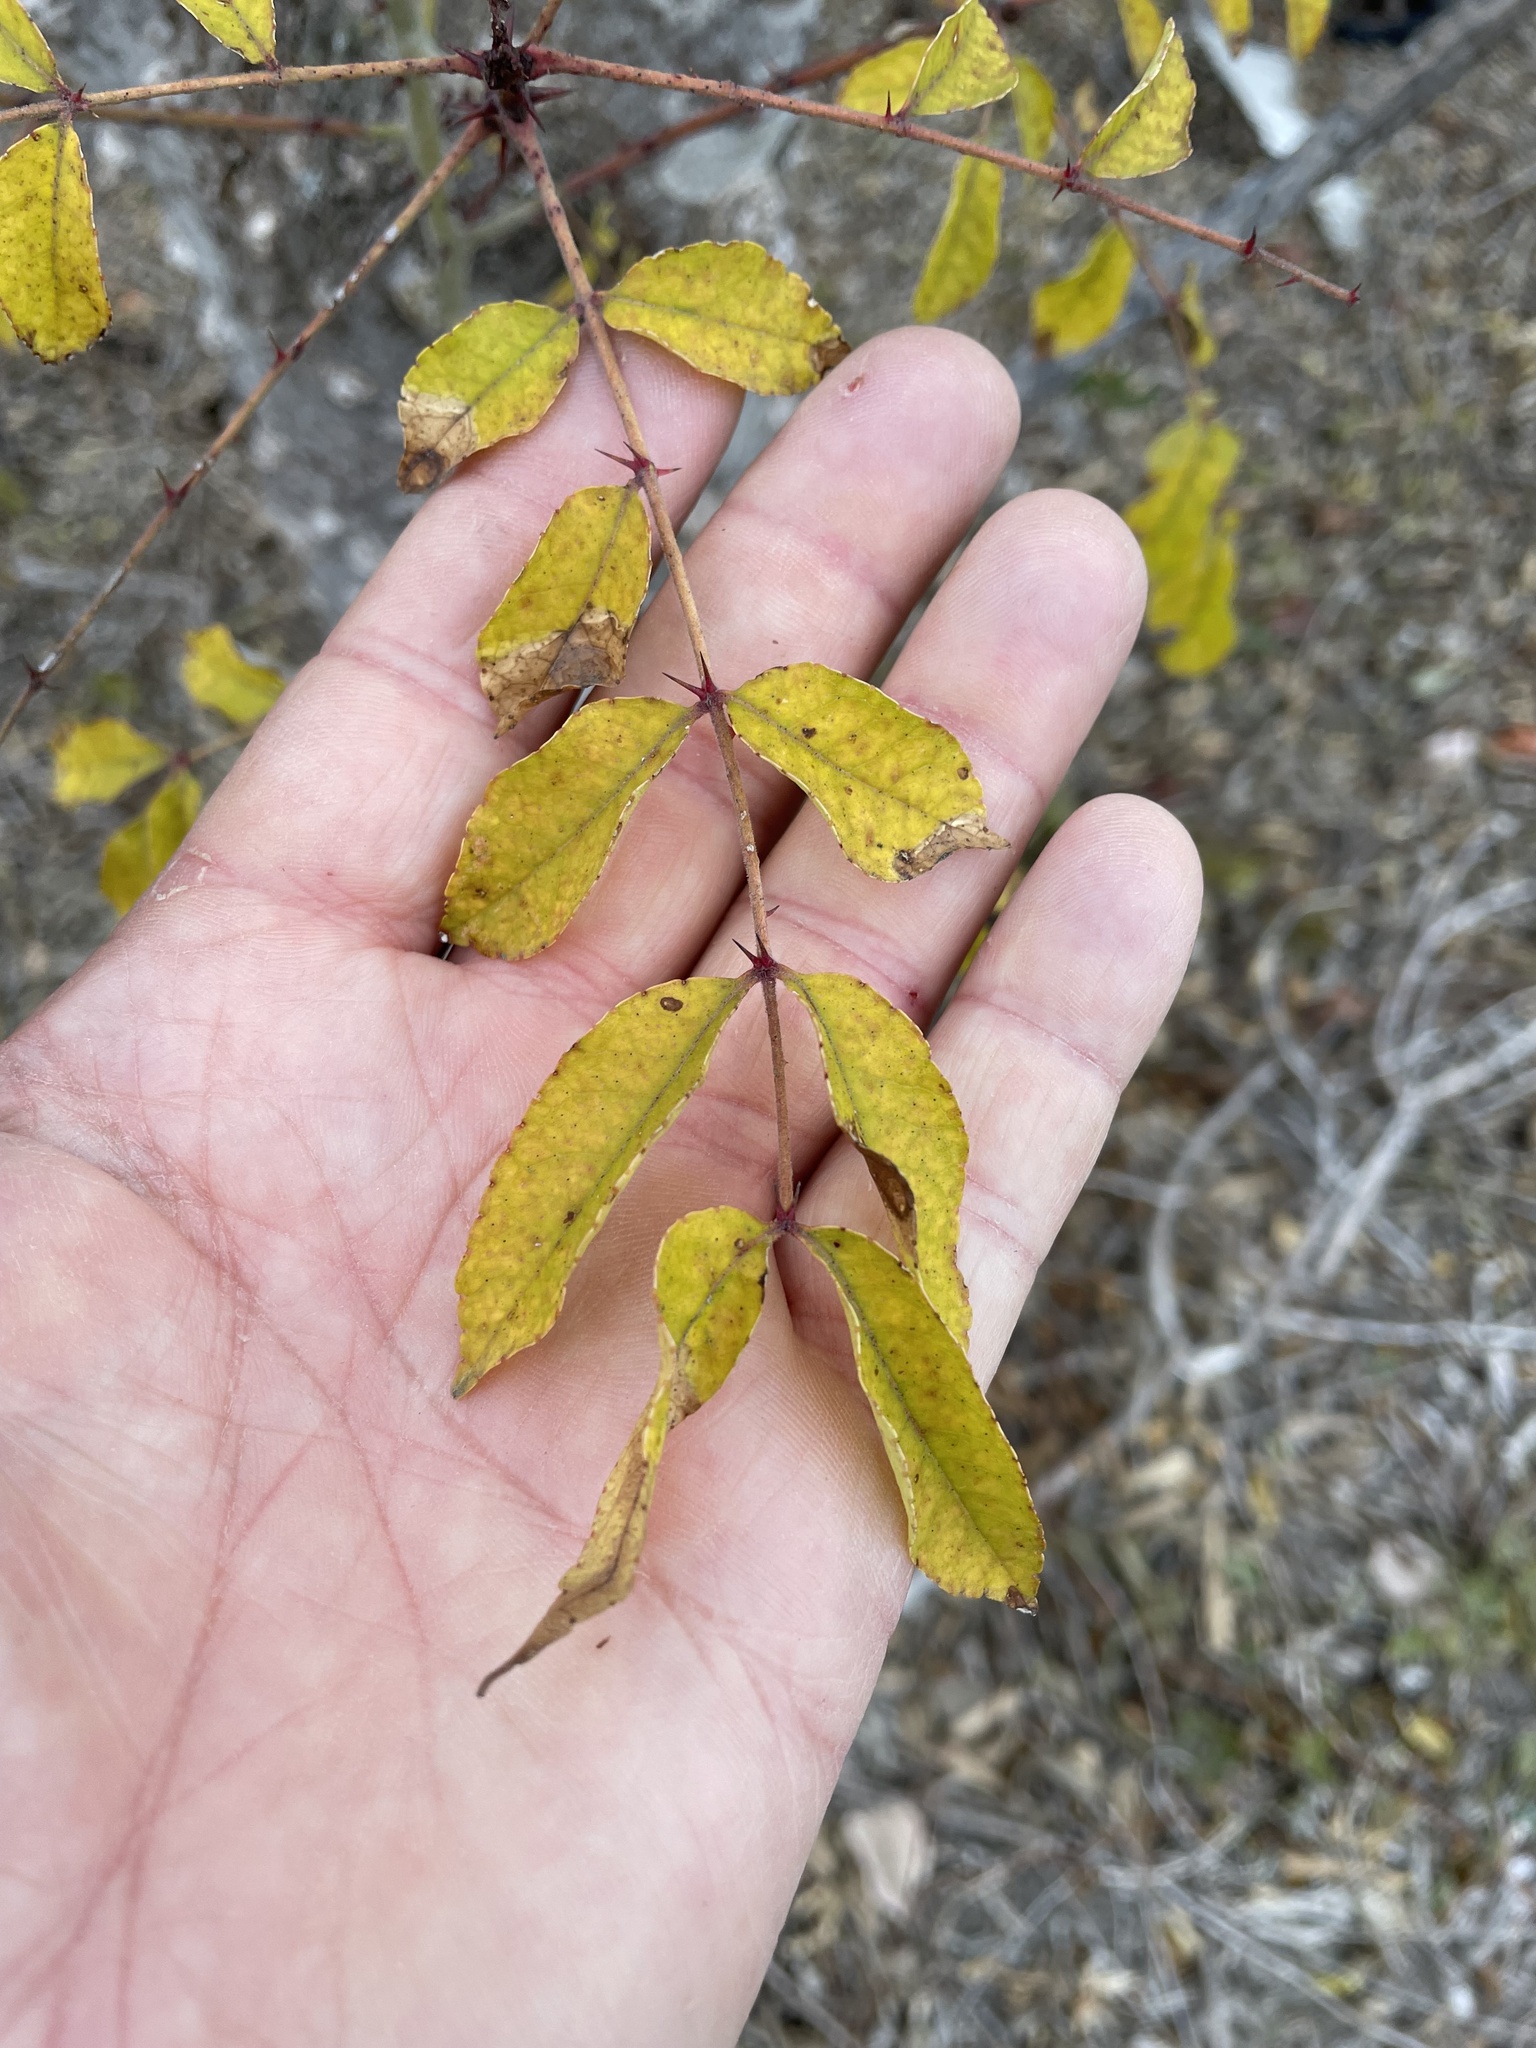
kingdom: Plantae
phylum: Tracheophyta
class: Magnoliopsida
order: Sapindales
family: Rutaceae
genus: Zanthoxylum
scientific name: Zanthoxylum clava-herculis
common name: Hercules'-club
